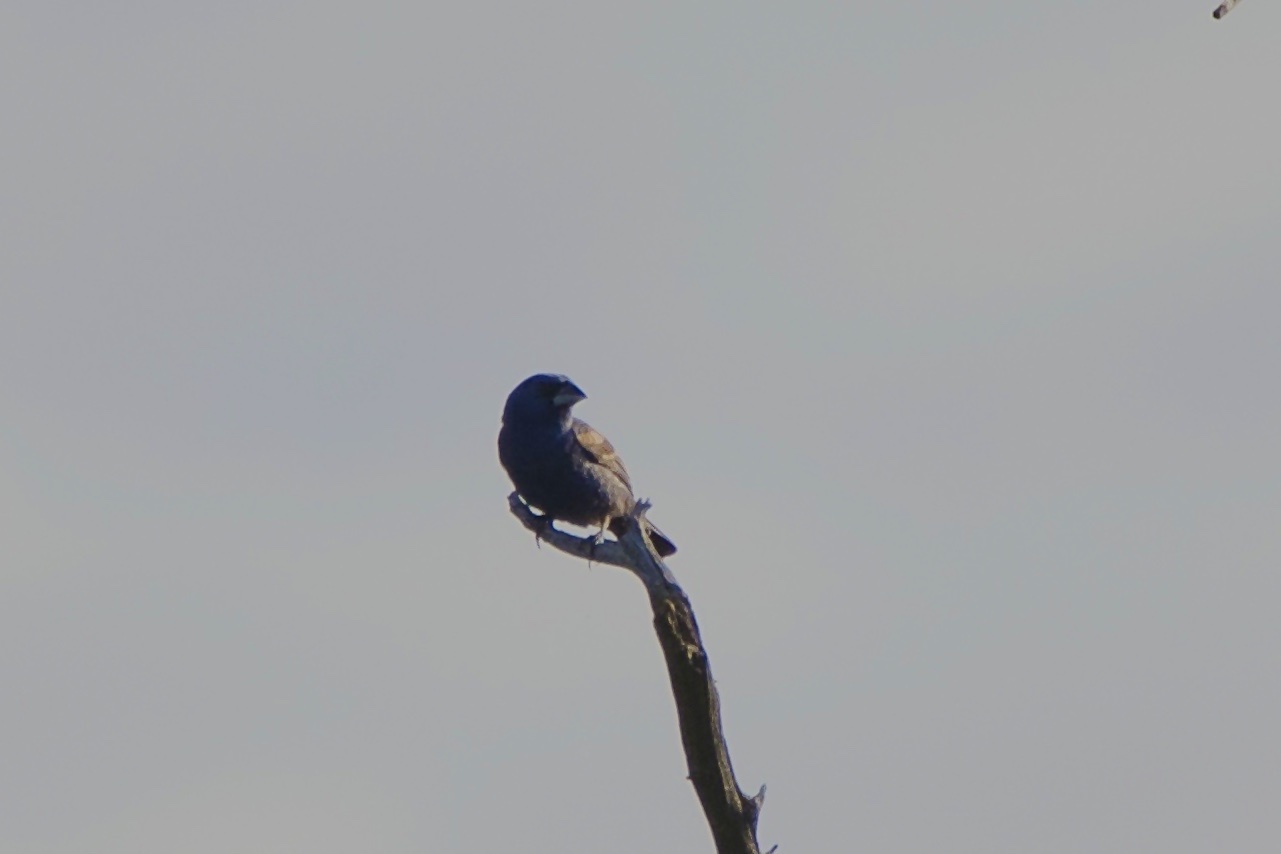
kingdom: Animalia
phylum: Chordata
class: Aves
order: Passeriformes
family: Cardinalidae
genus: Passerina
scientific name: Passerina caerulea
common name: Blue grosbeak
